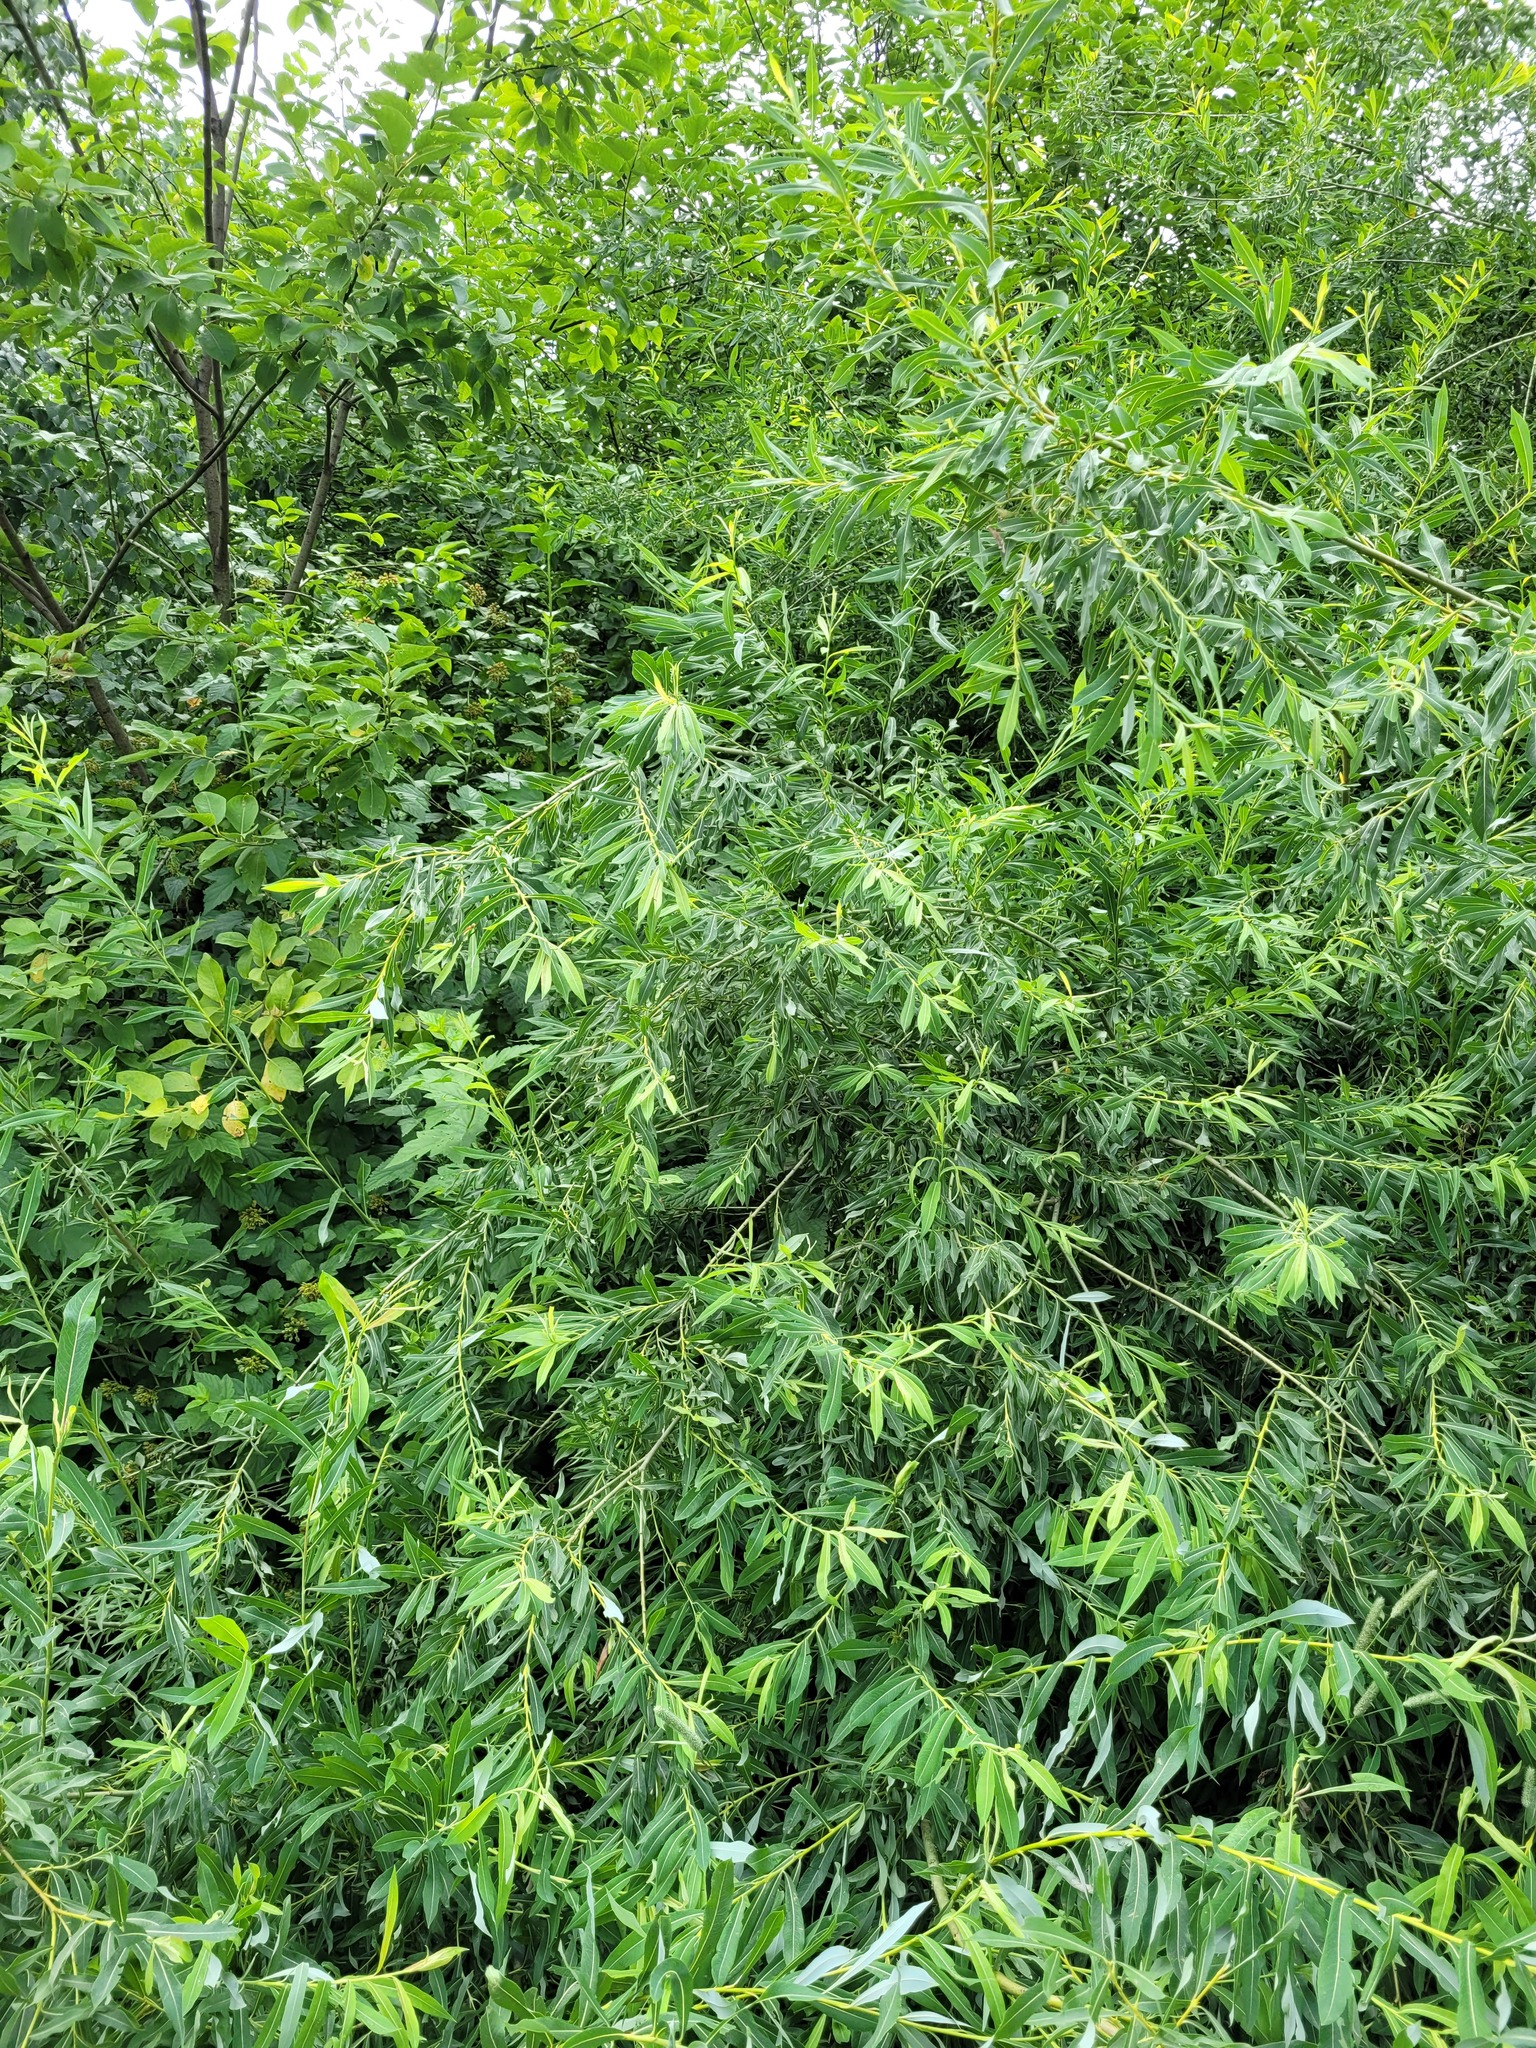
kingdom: Plantae
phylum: Tracheophyta
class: Magnoliopsida
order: Malpighiales
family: Salicaceae
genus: Salix
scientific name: Salix purpurea
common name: Purple willow
